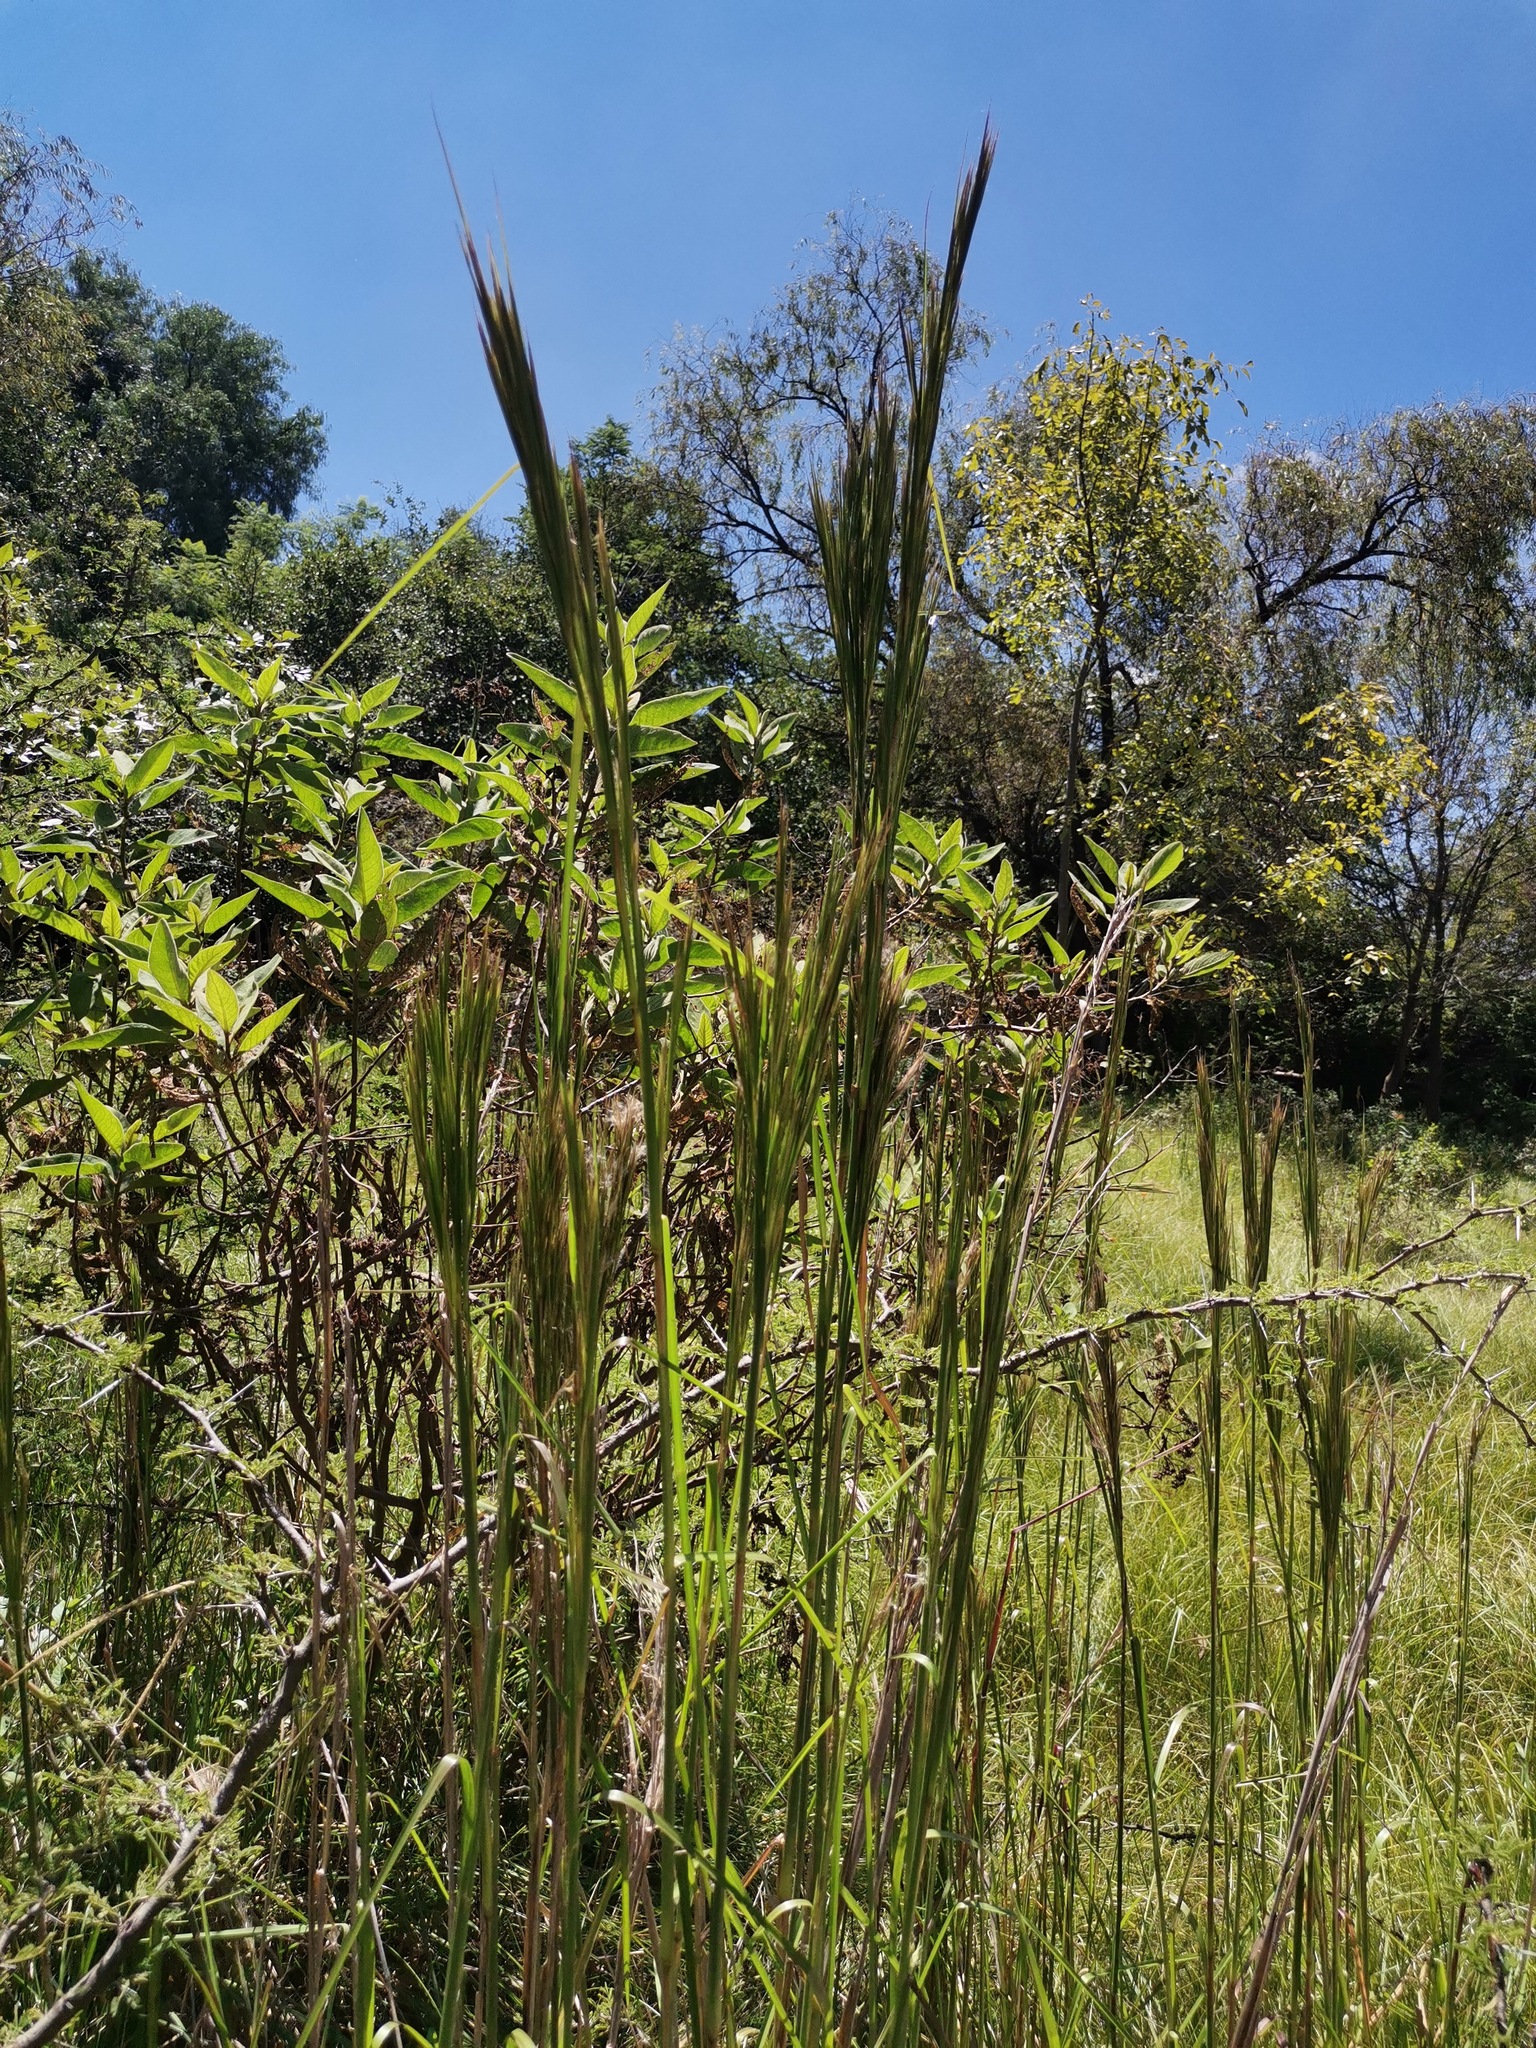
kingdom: Plantae
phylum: Tracheophyta
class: Liliopsida
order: Poales
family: Poaceae
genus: Andropogon
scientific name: Andropogon bicornis
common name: West indian foxtail grass
